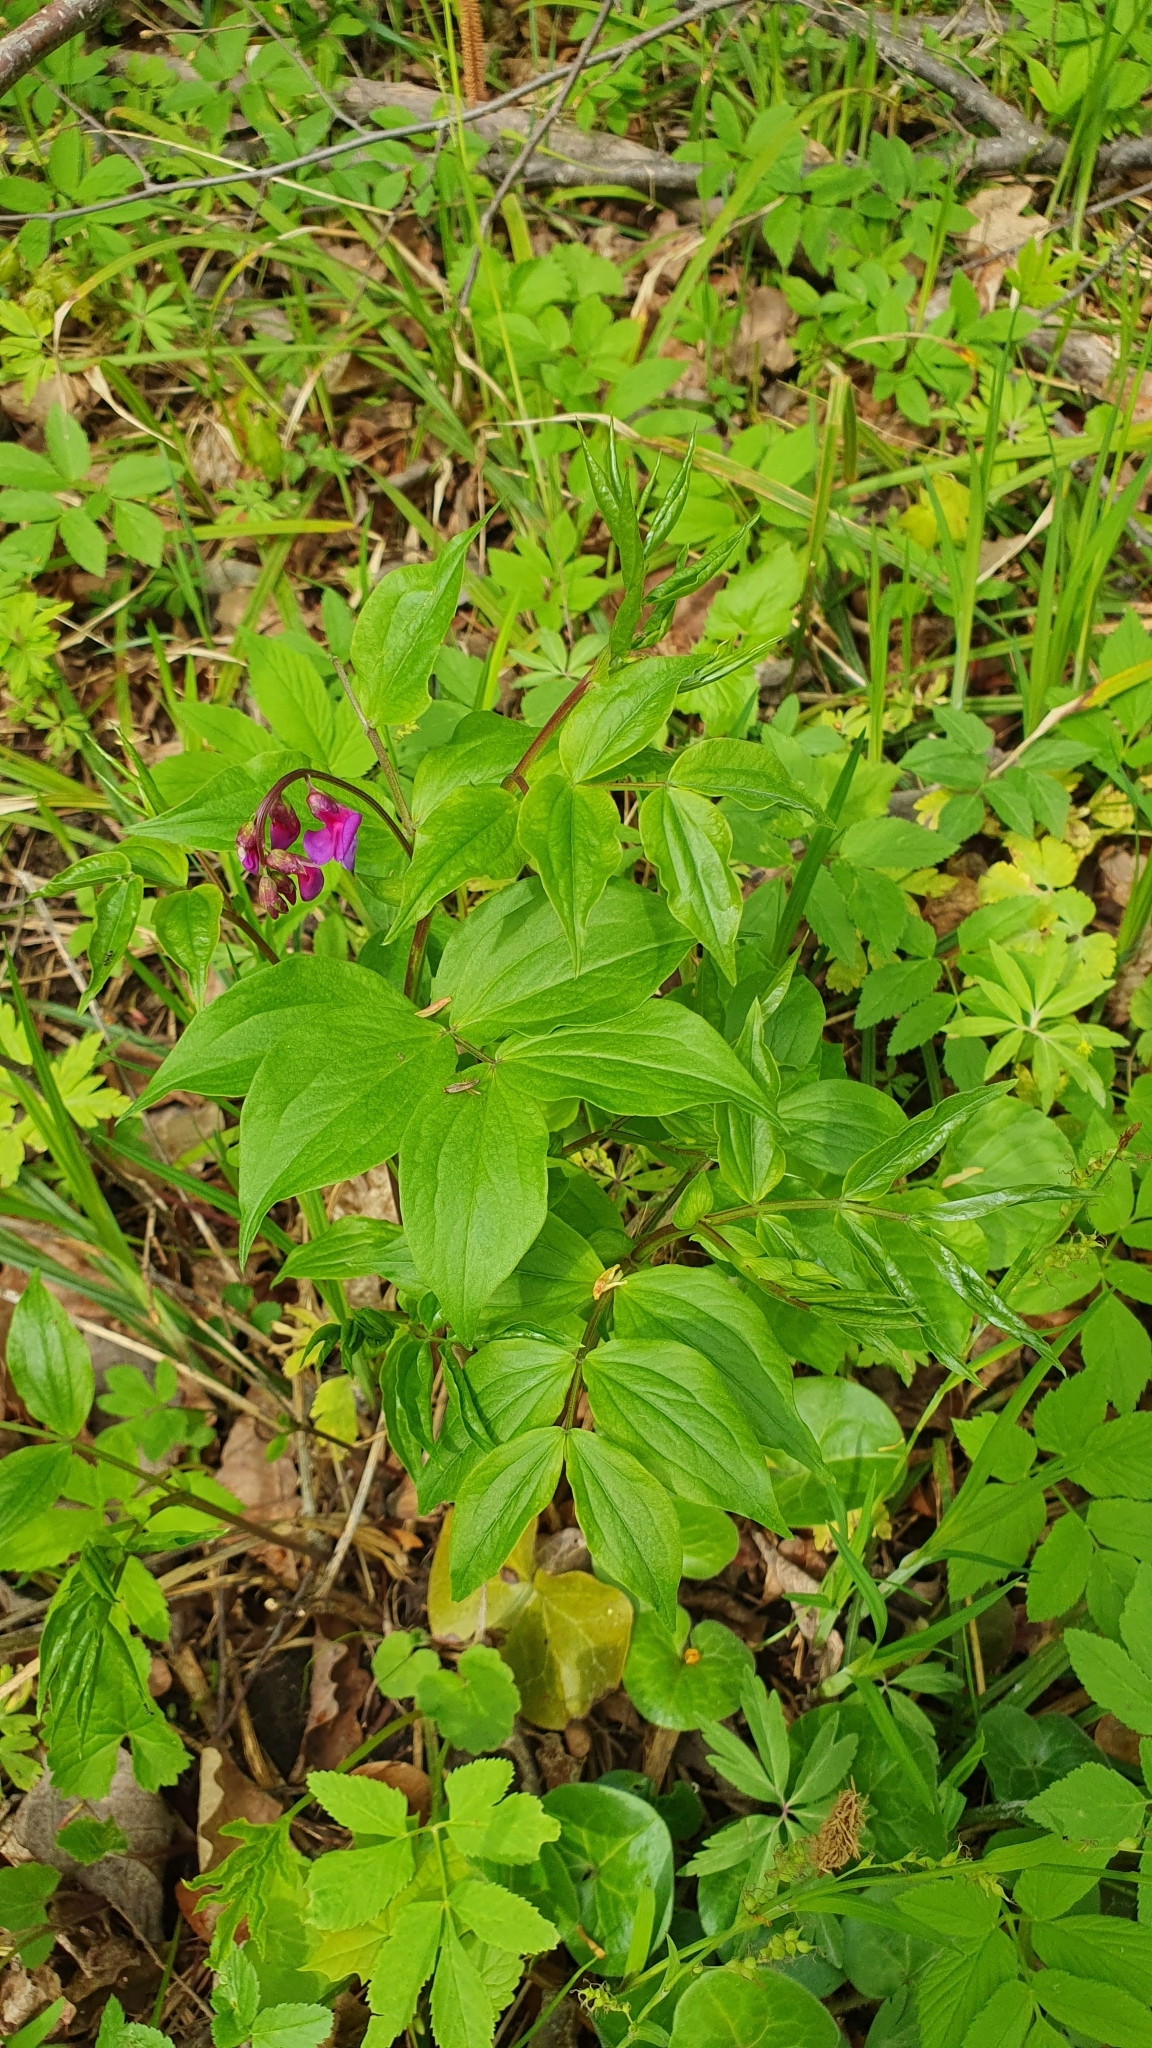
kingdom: Plantae
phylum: Tracheophyta
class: Magnoliopsida
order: Fabales
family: Fabaceae
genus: Lathyrus
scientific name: Lathyrus vernus
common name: Spring pea
